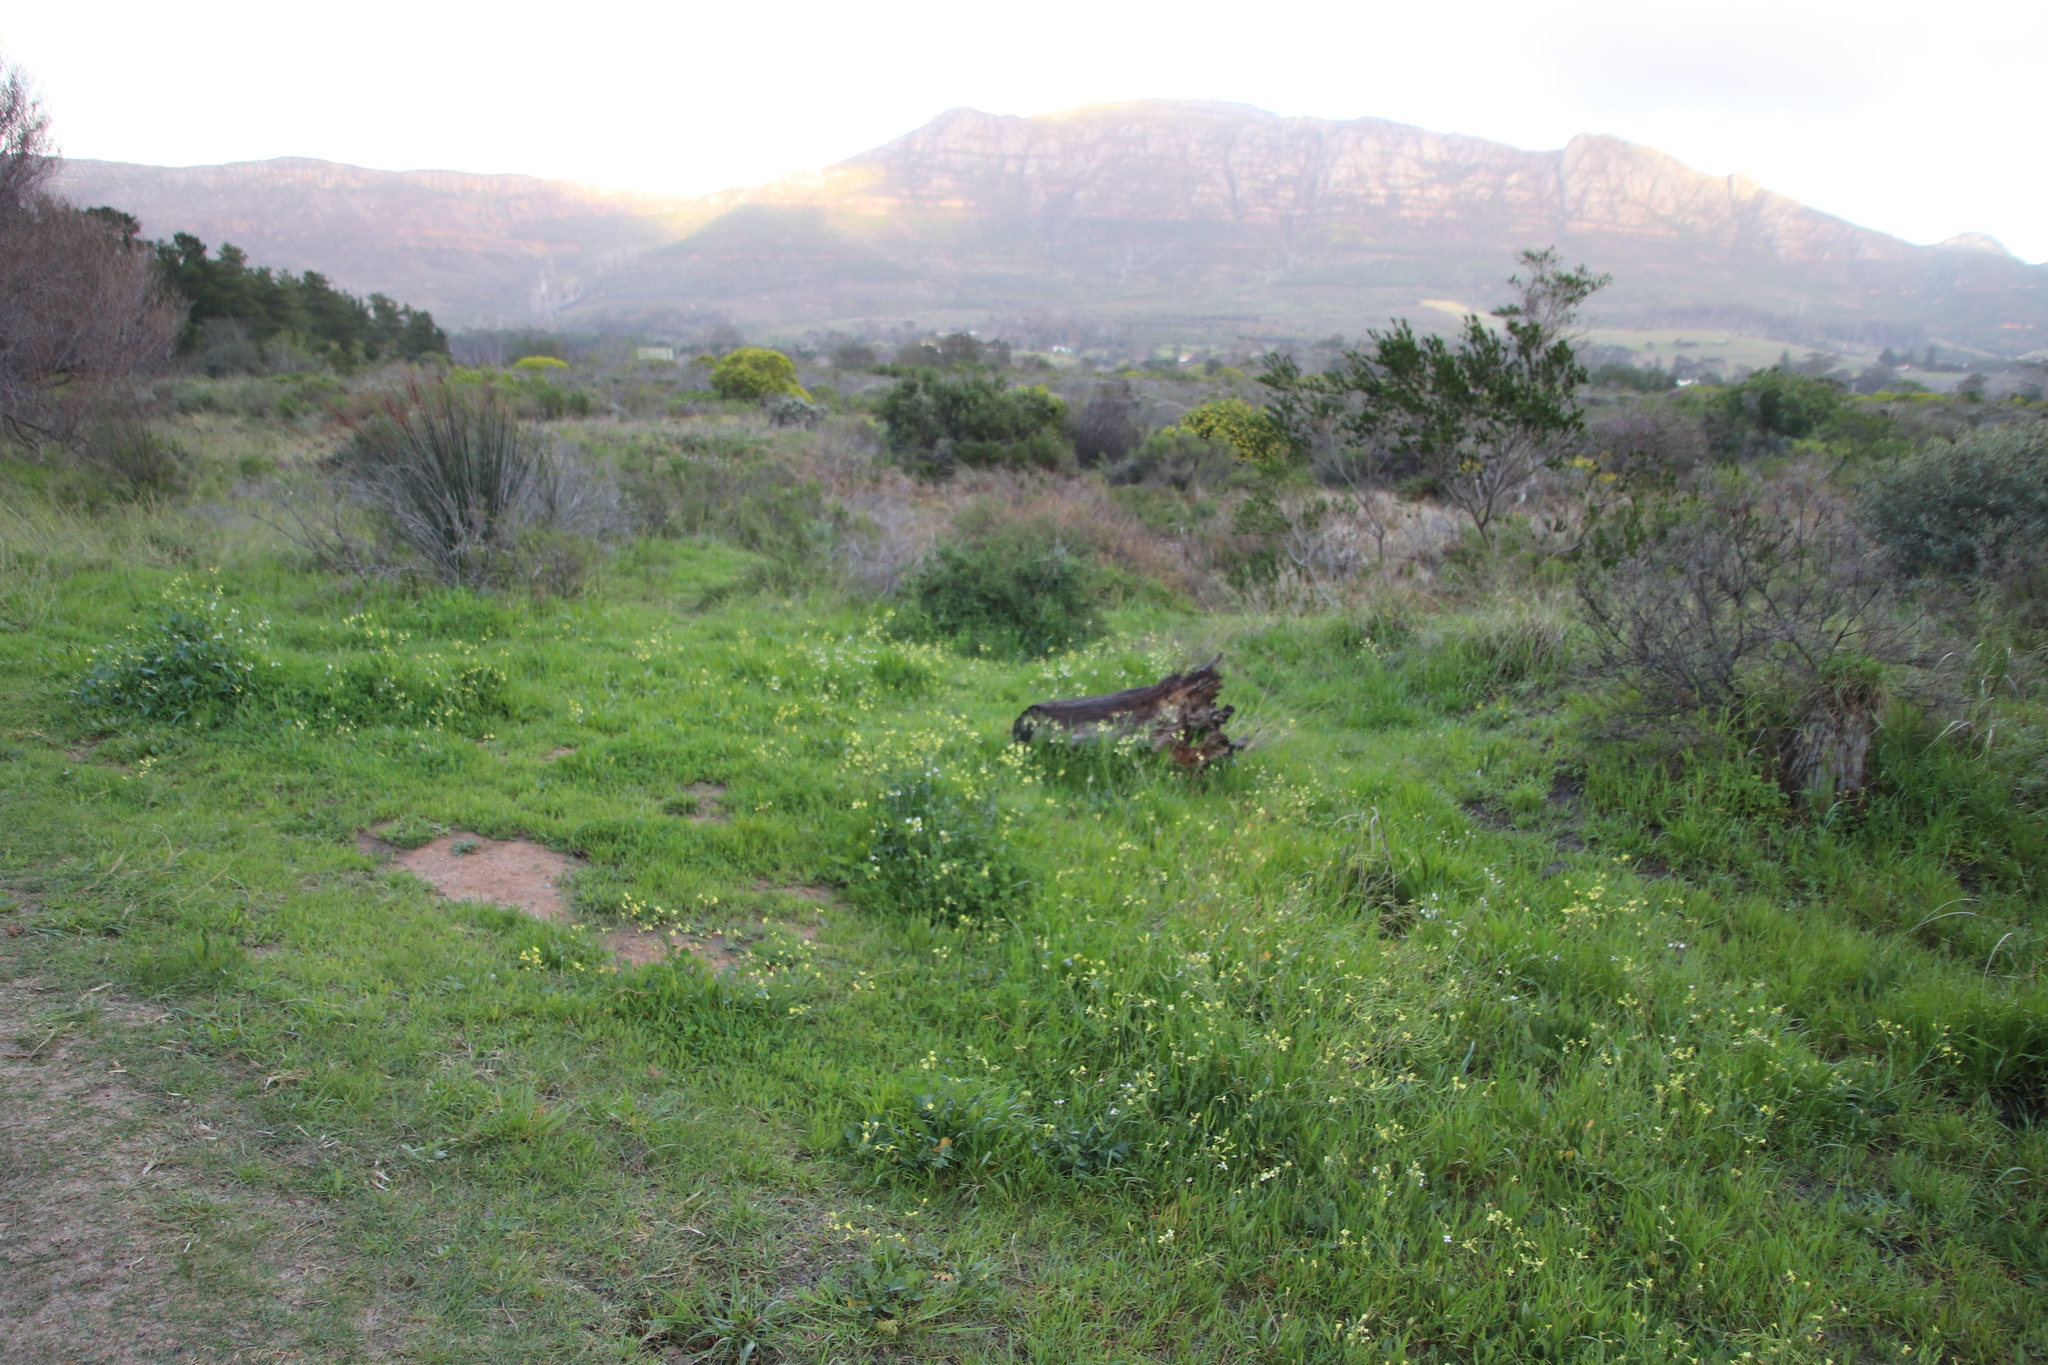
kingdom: Plantae
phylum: Tracheophyta
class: Magnoliopsida
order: Brassicales
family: Brassicaceae
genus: Raphanus
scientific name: Raphanus raphanistrum
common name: Wild radish
